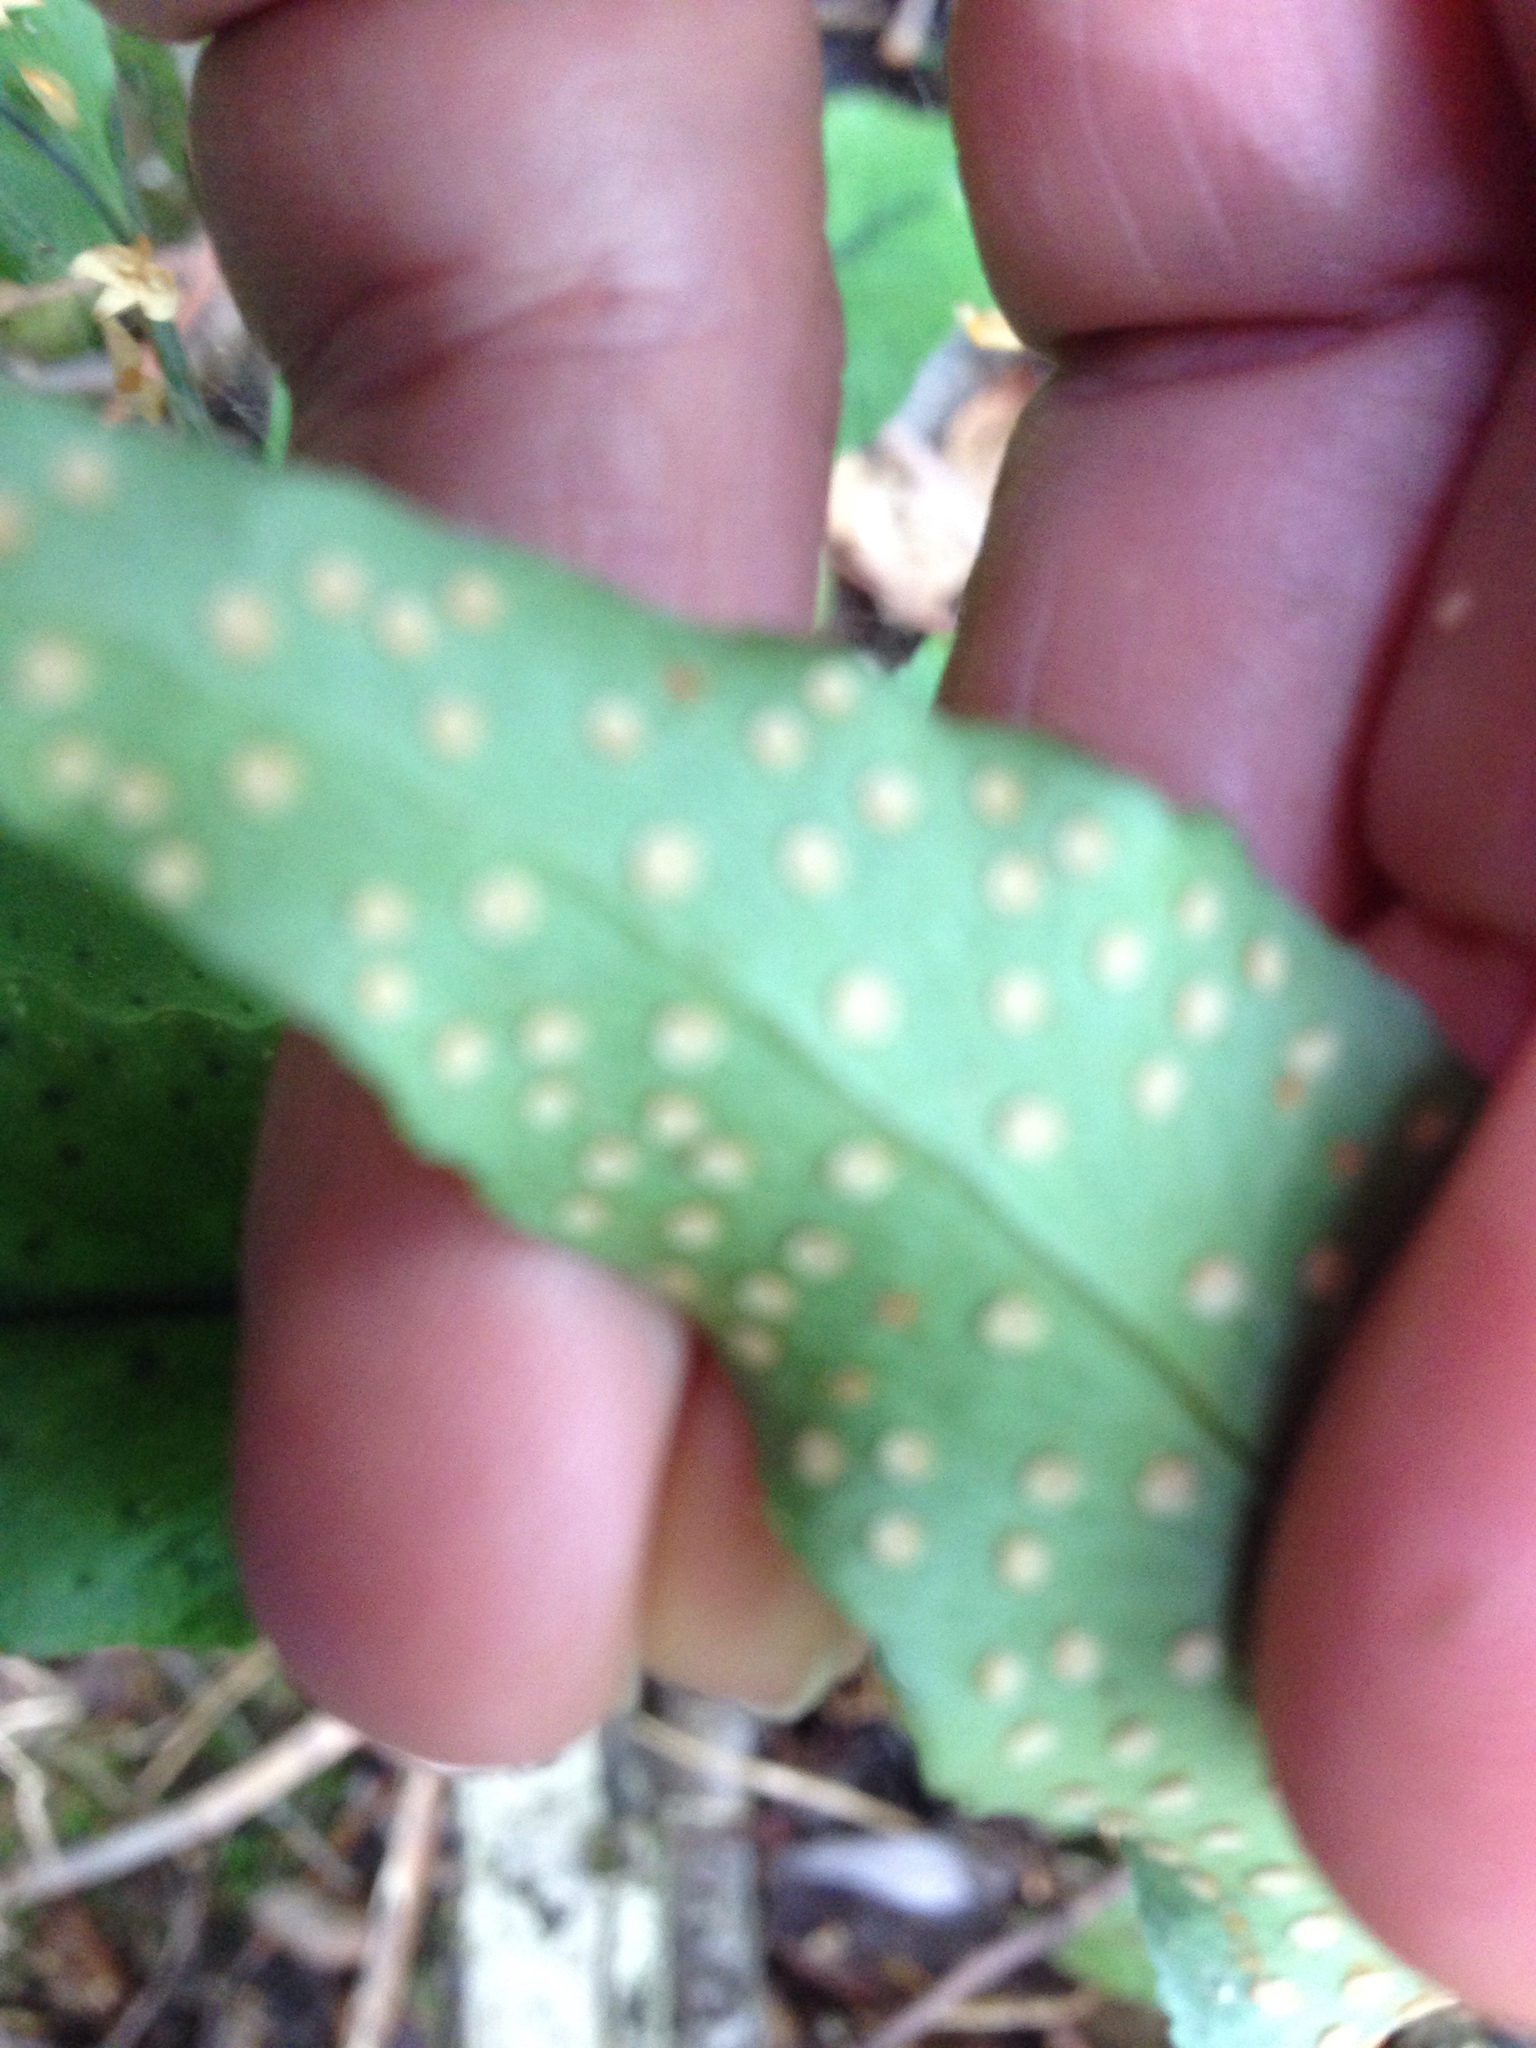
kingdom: Plantae
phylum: Tracheophyta
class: Polypodiopsida
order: Polypodiales
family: Dryopteridaceae
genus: Cyrtomium
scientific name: Cyrtomium fortunei
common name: Asian netvein hollyfern
